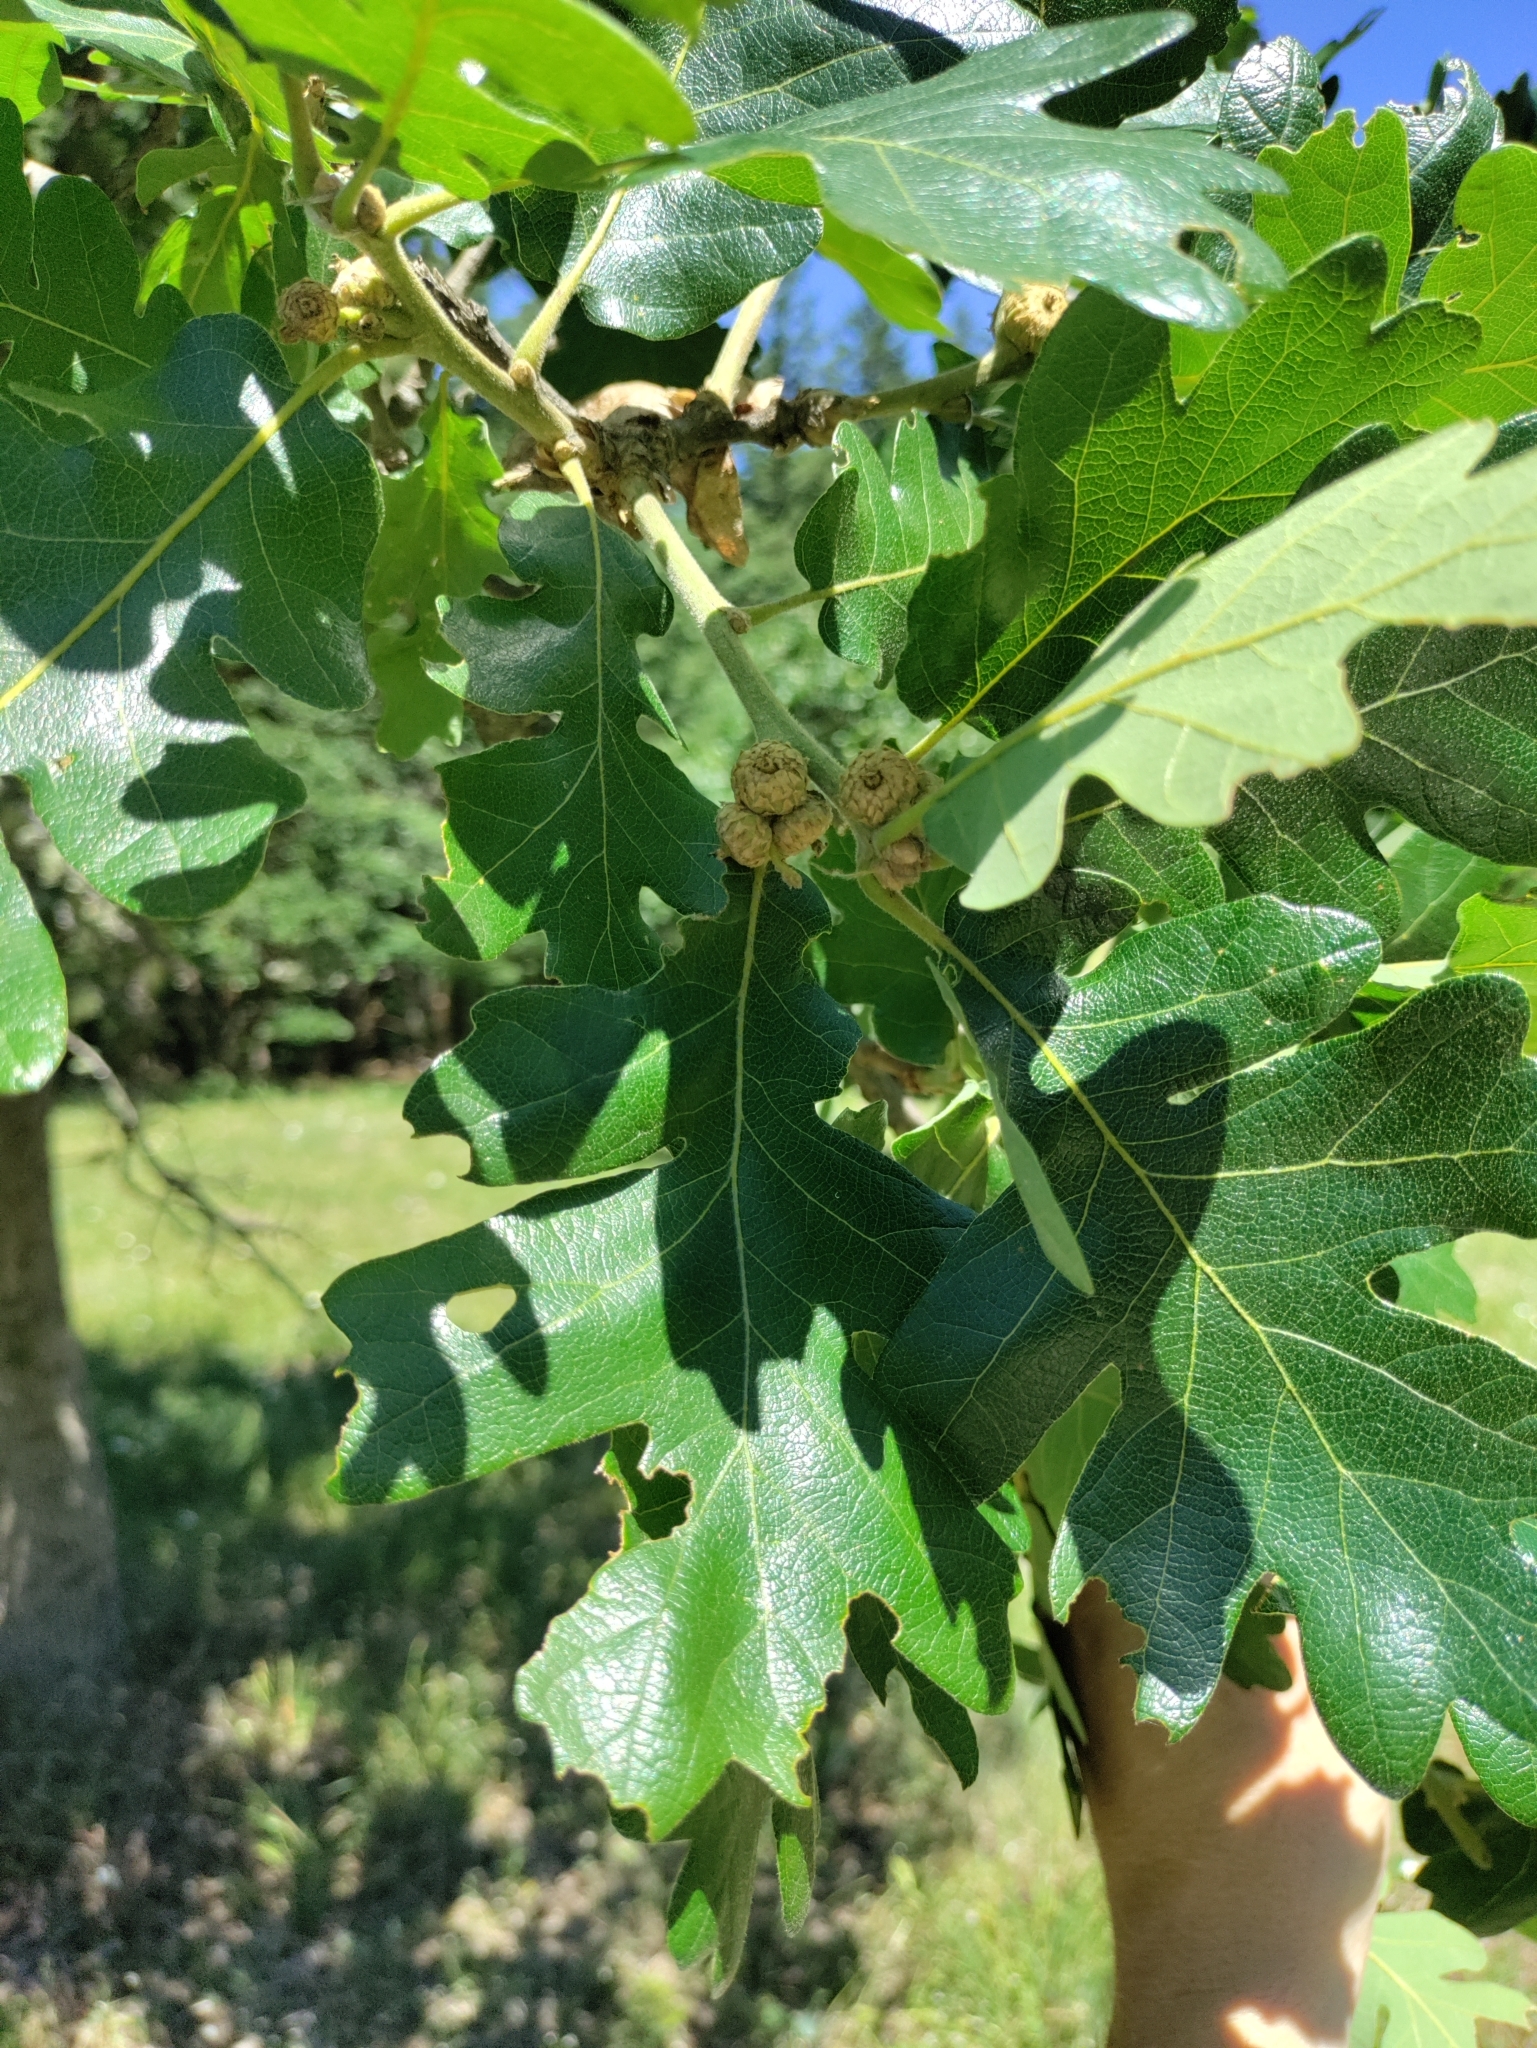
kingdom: Plantae
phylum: Tracheophyta
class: Magnoliopsida
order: Fagales
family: Fagaceae
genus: Quercus
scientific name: Quercus garryana
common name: Garry oak
